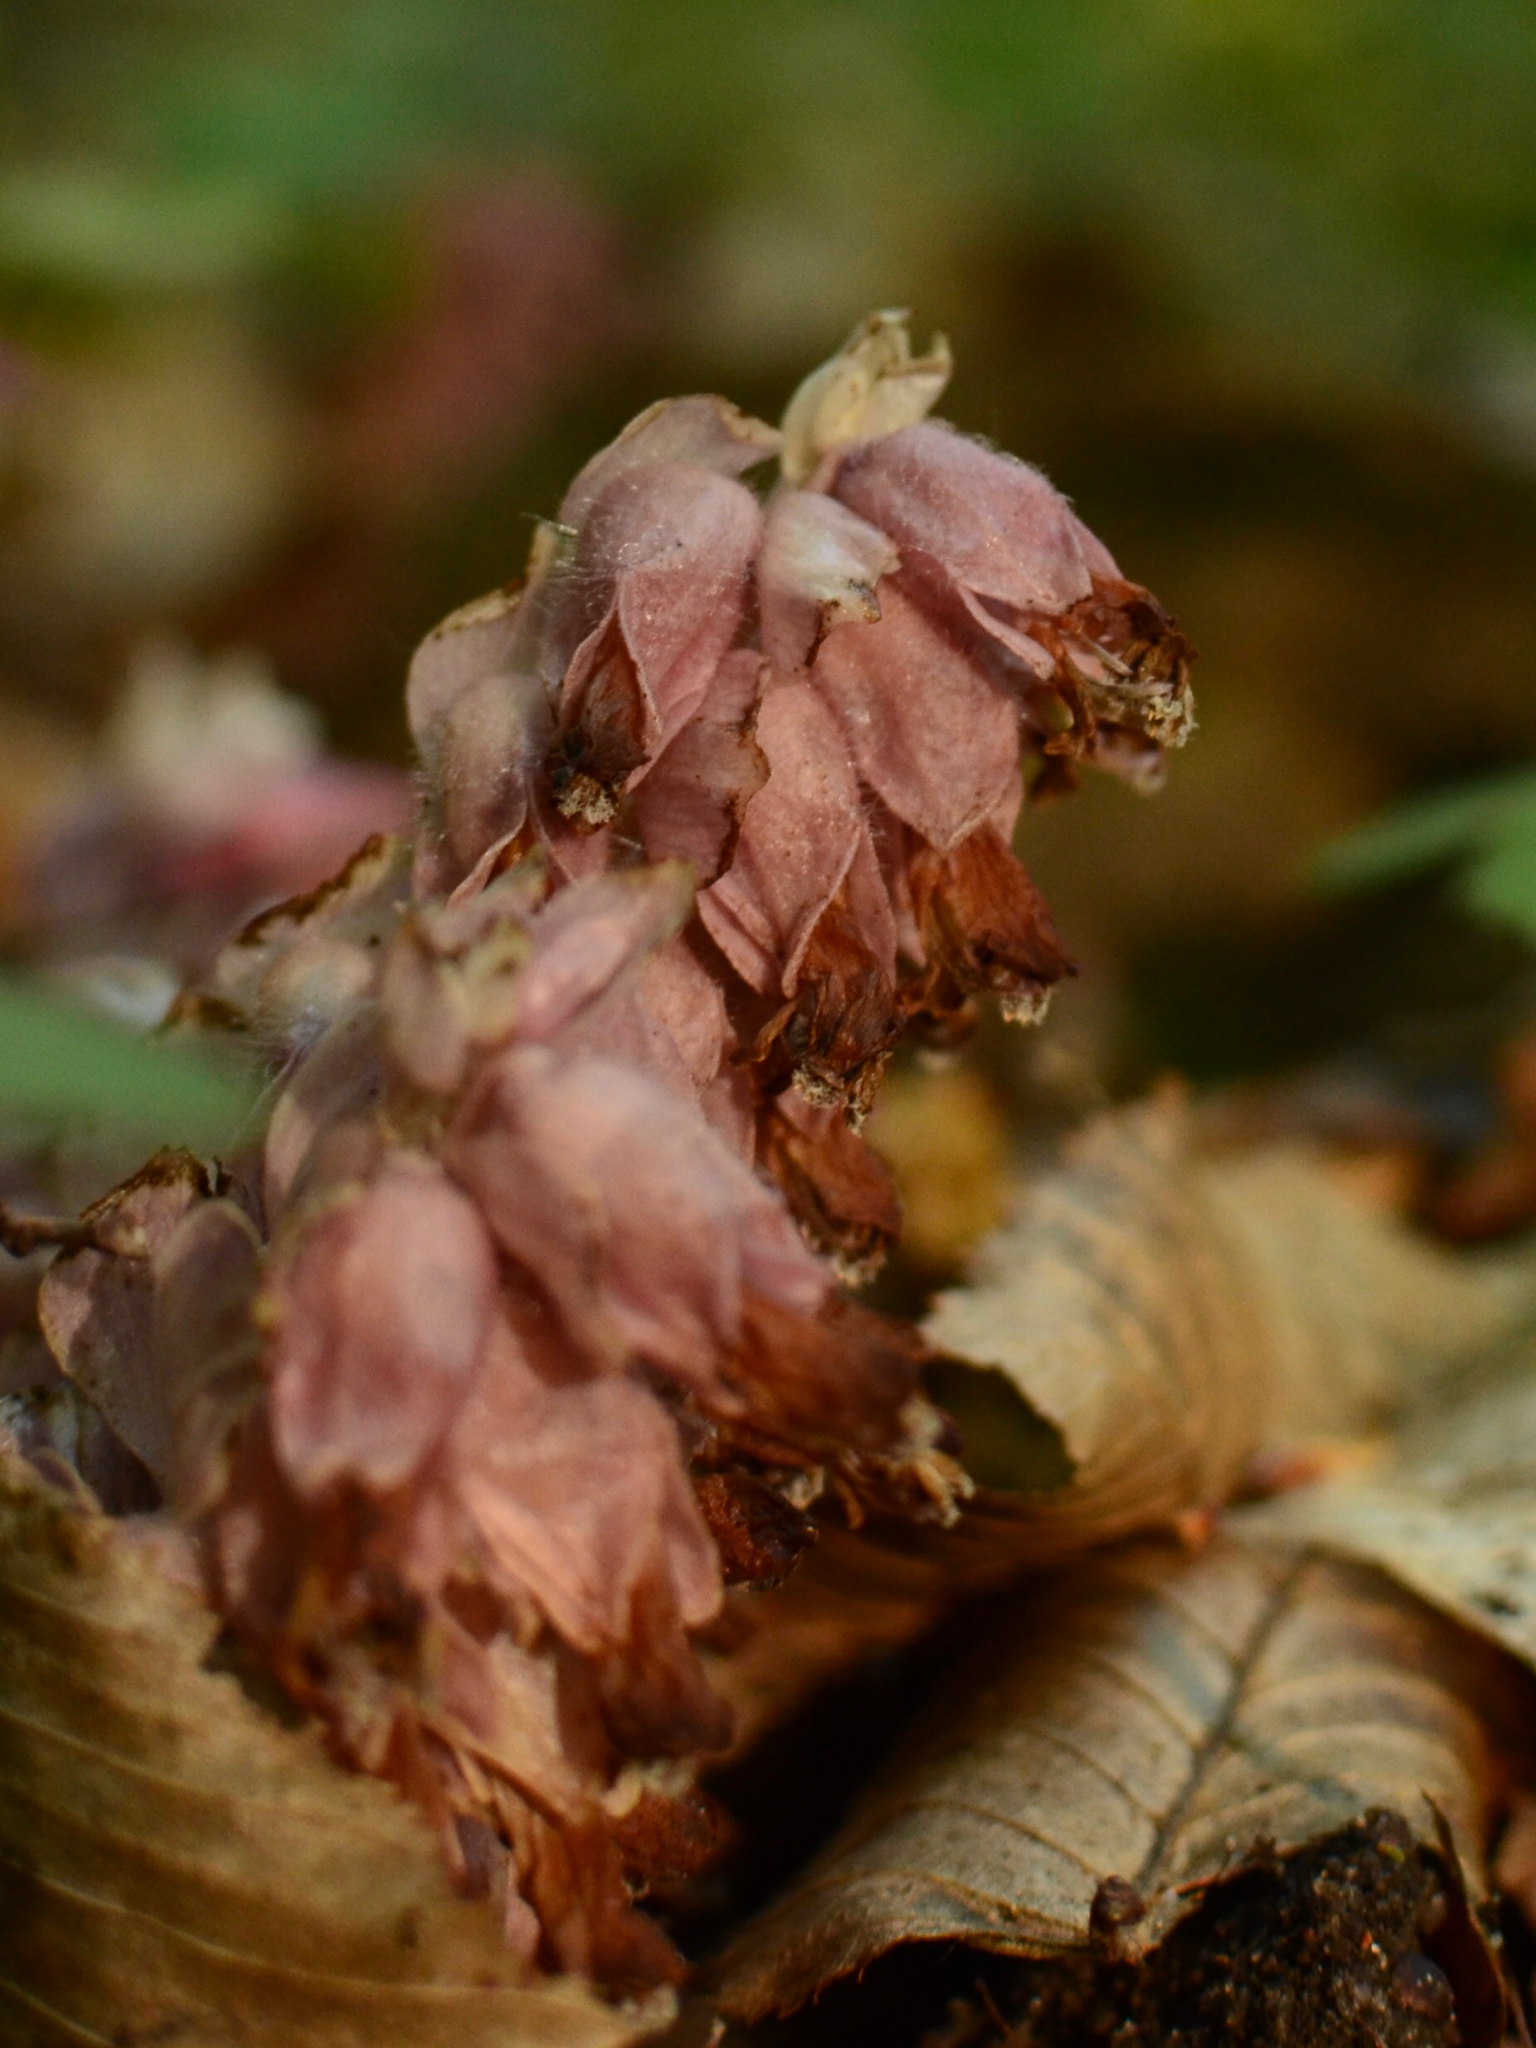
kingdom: Plantae
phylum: Tracheophyta
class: Magnoliopsida
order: Lamiales
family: Orobanchaceae
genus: Lathraea
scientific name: Lathraea squamaria
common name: Toothwort
